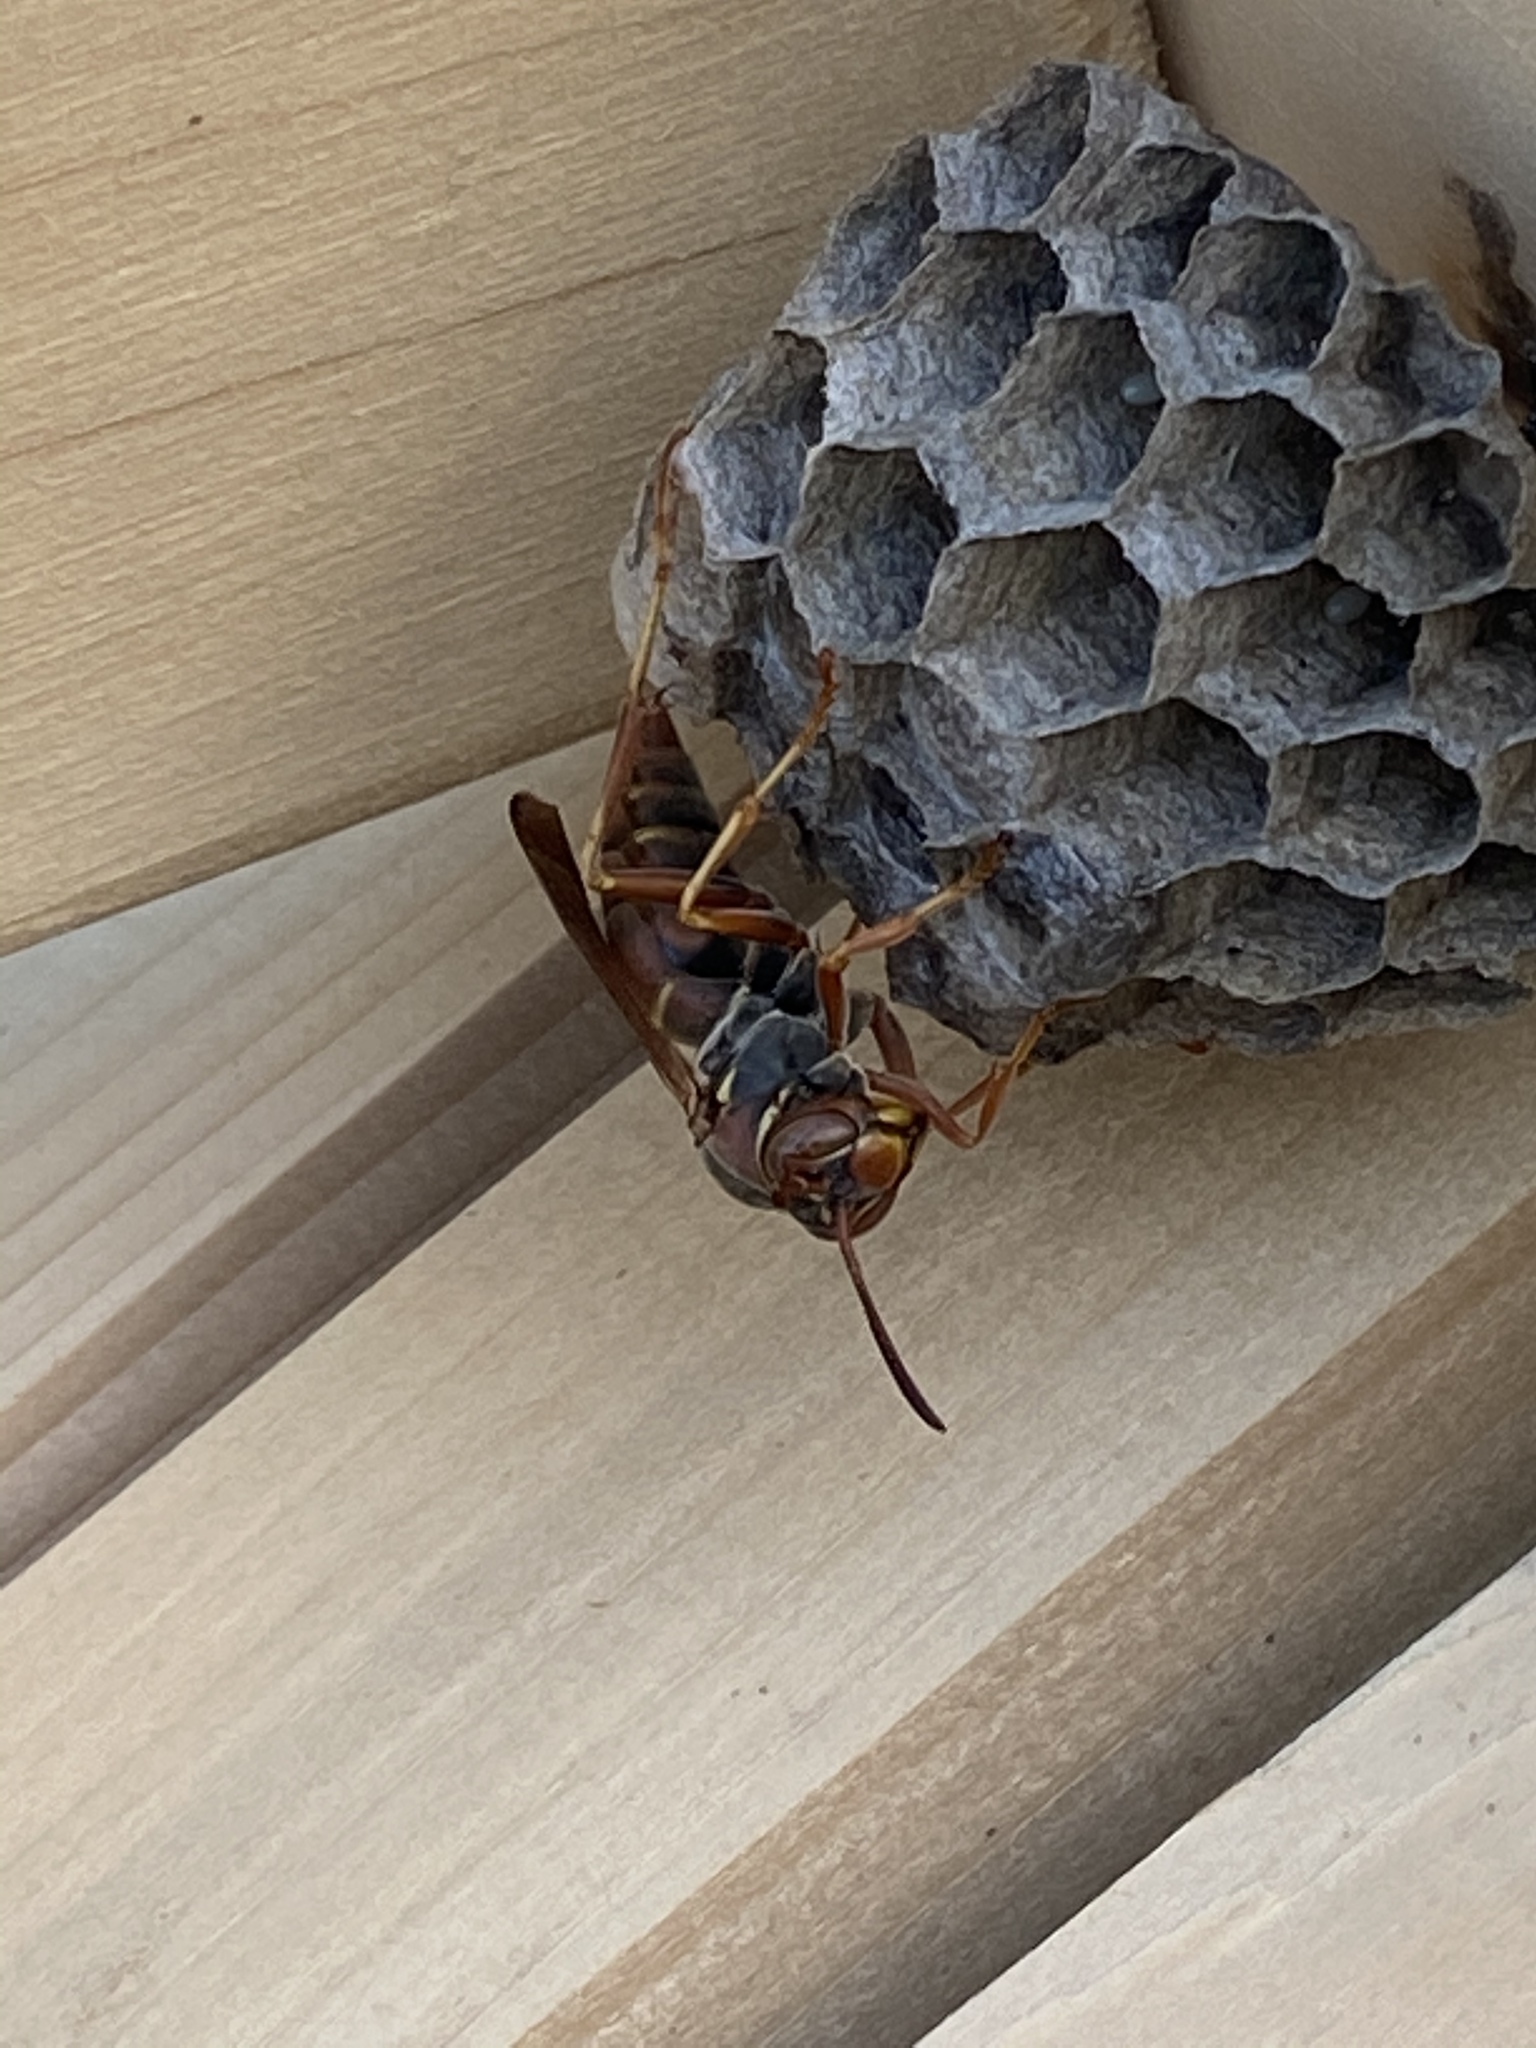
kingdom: Animalia
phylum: Arthropoda
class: Insecta
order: Hymenoptera
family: Eumenidae
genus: Polistes
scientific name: Polistes fuscatus
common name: Dark paper wasp
